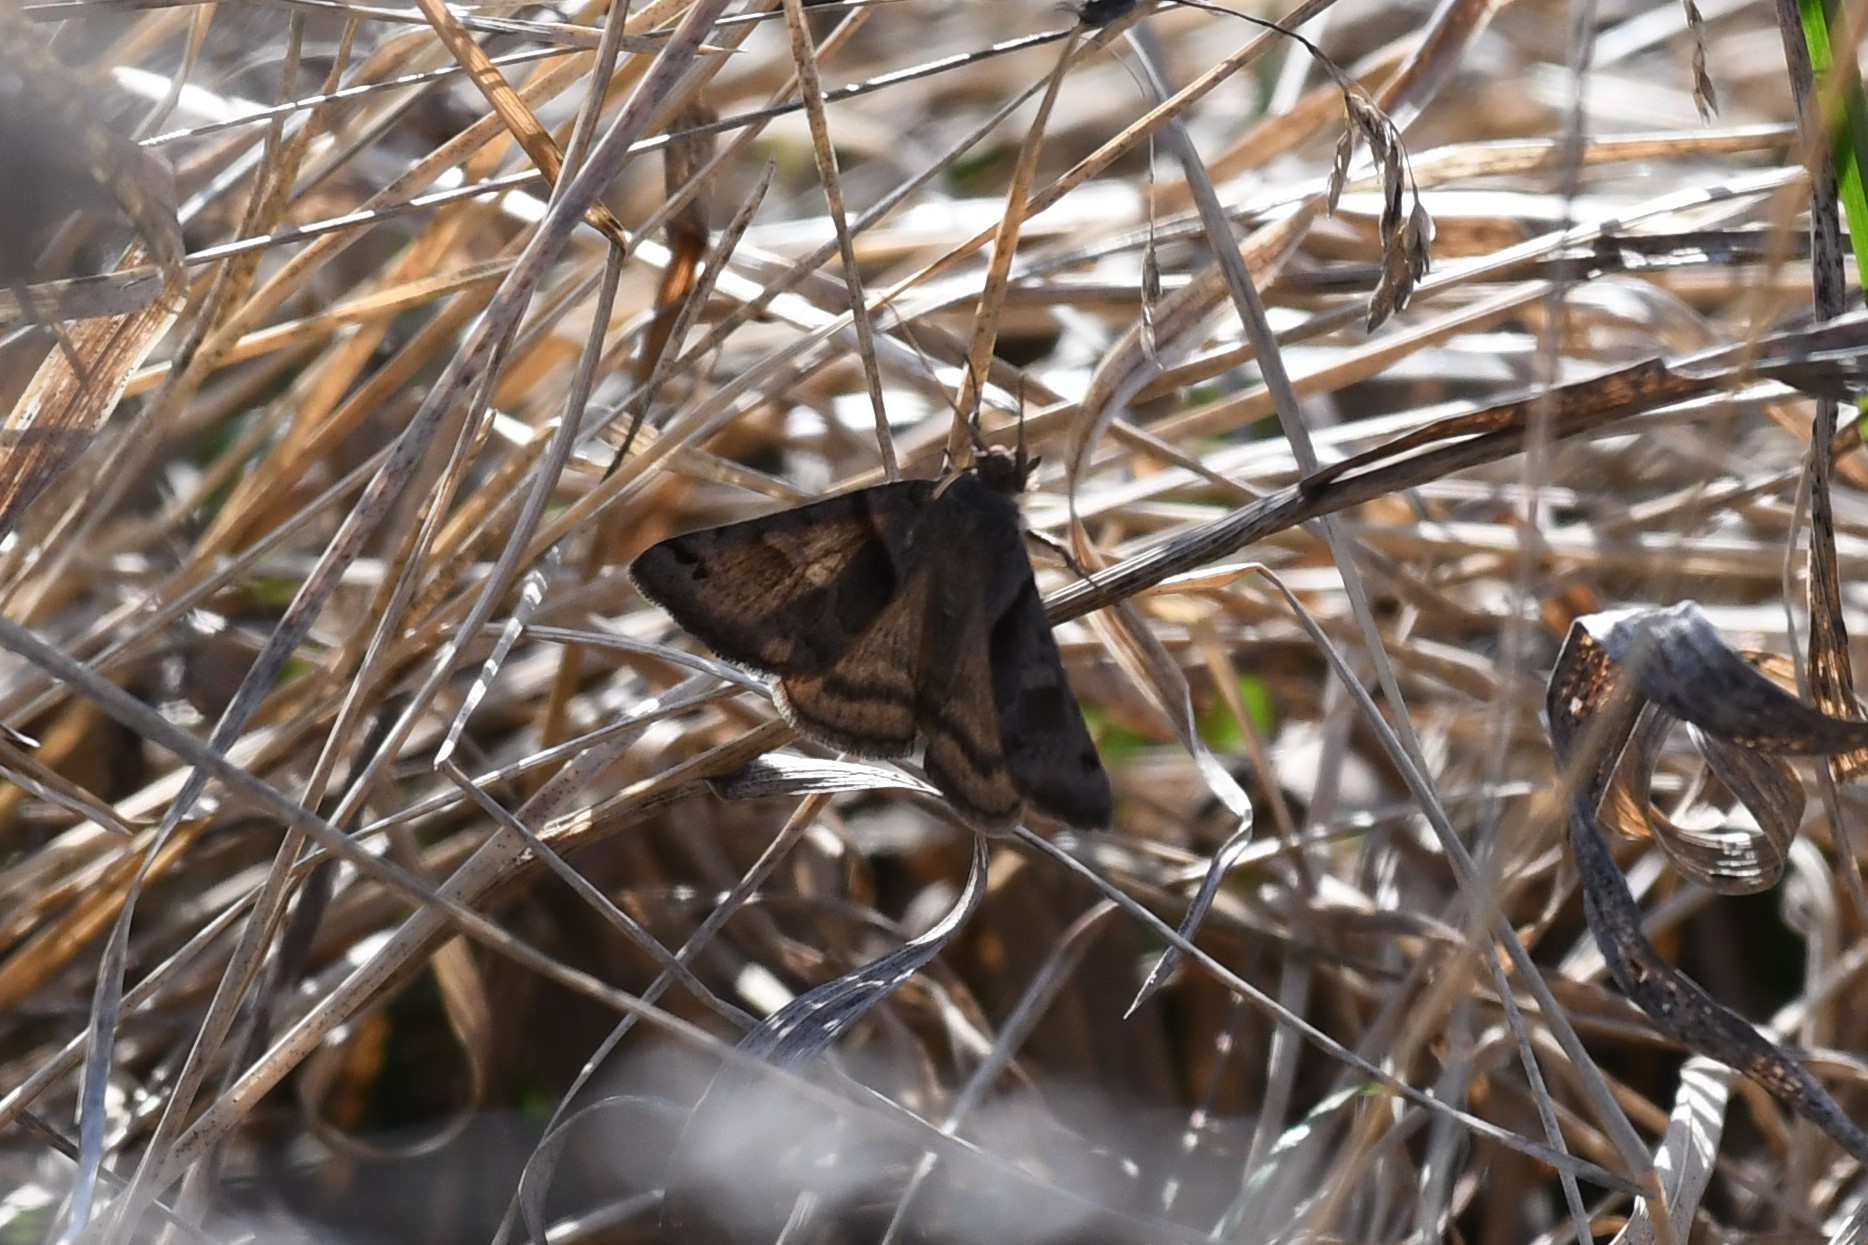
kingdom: Animalia
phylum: Arthropoda
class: Insecta
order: Lepidoptera
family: Erebidae
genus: Caenurgina
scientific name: Caenurgina erechtea
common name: Forage looper moth
